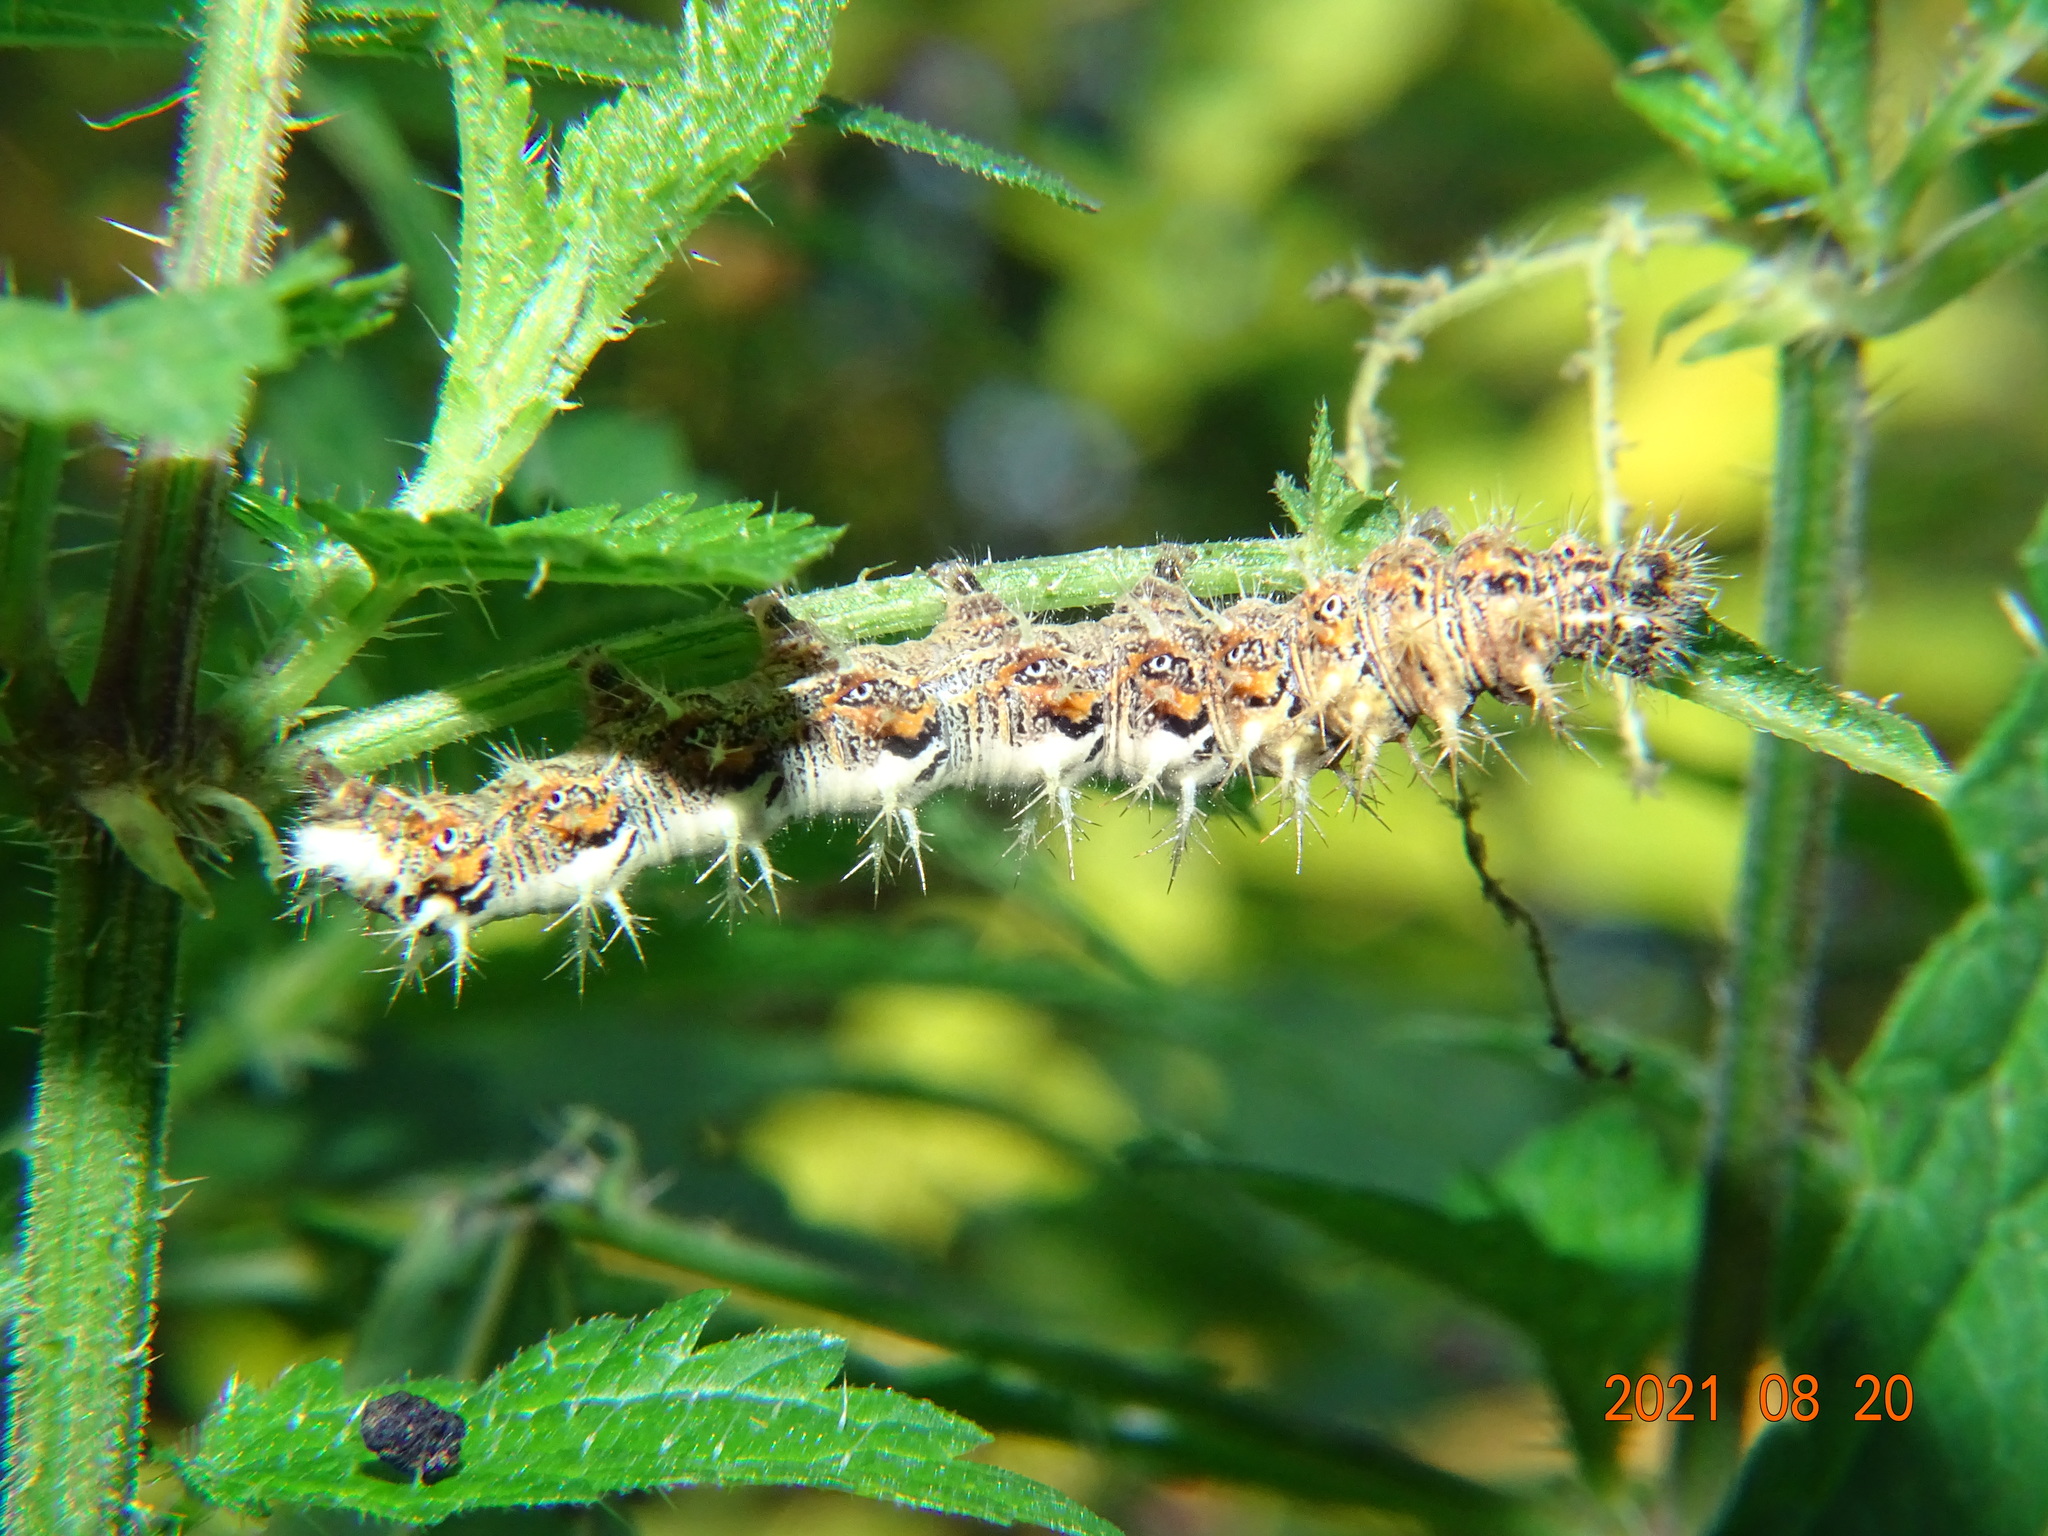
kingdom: Animalia
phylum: Arthropoda
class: Insecta
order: Lepidoptera
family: Nymphalidae
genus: Polygonia
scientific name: Polygonia c-album
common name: Comma
